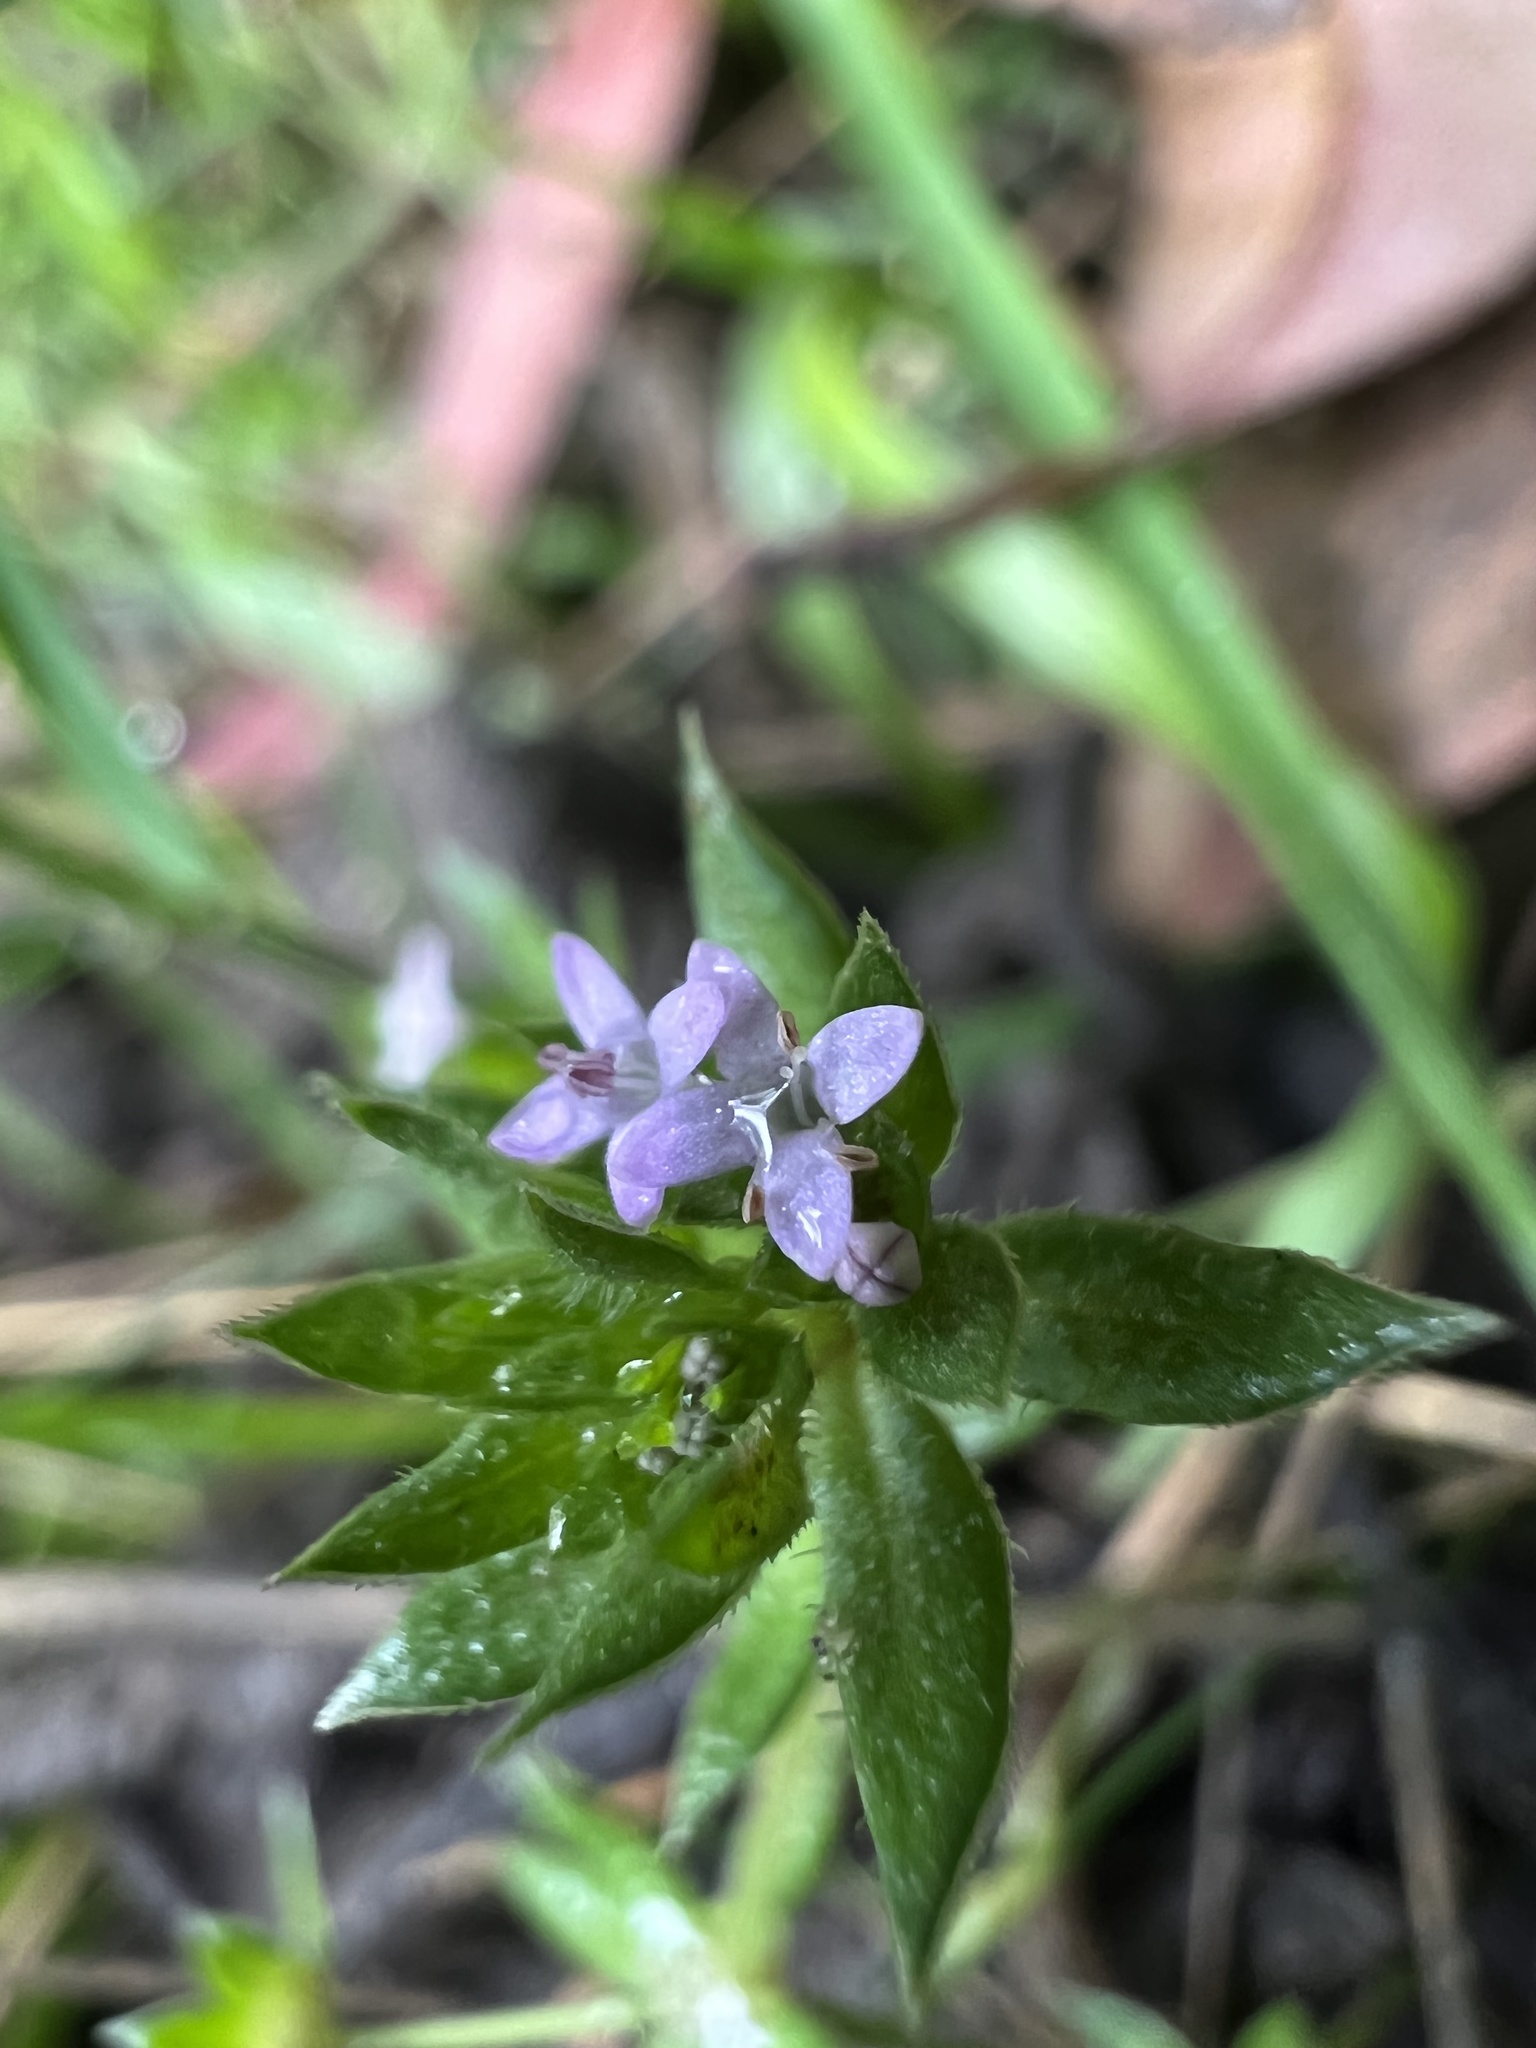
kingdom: Plantae
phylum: Tracheophyta
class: Magnoliopsida
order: Gentianales
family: Rubiaceae
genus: Sherardia
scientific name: Sherardia arvensis
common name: Field madder
